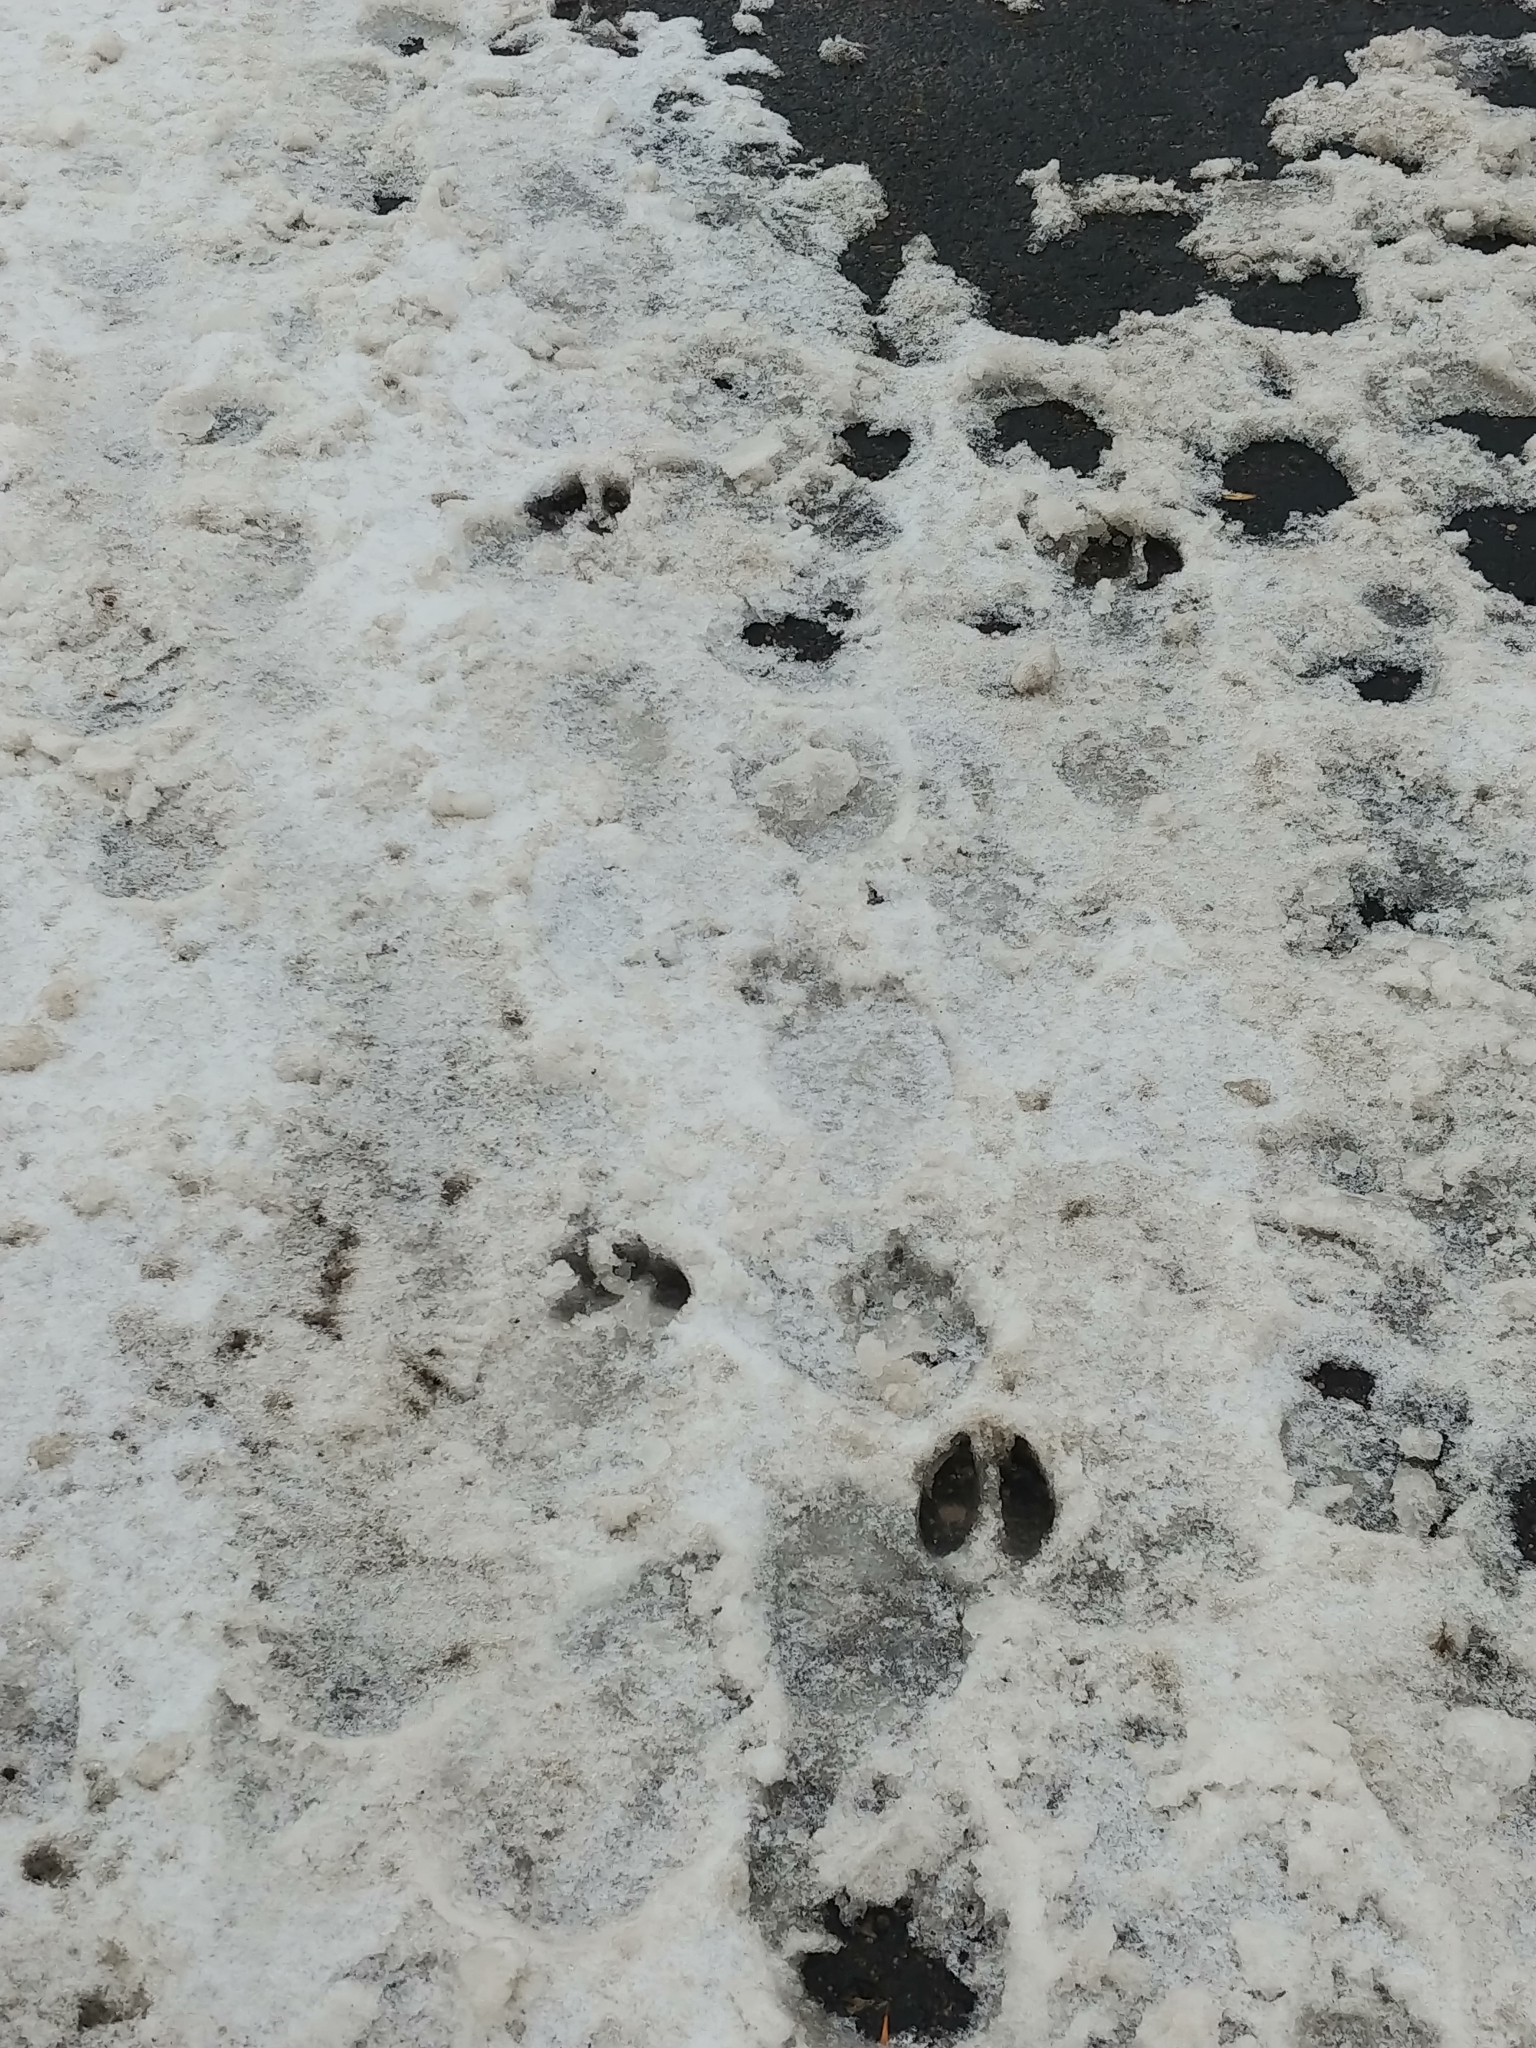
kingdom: Animalia
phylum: Chordata
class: Mammalia
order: Artiodactyla
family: Cervidae
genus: Odocoileus
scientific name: Odocoileus virginianus
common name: White-tailed deer
